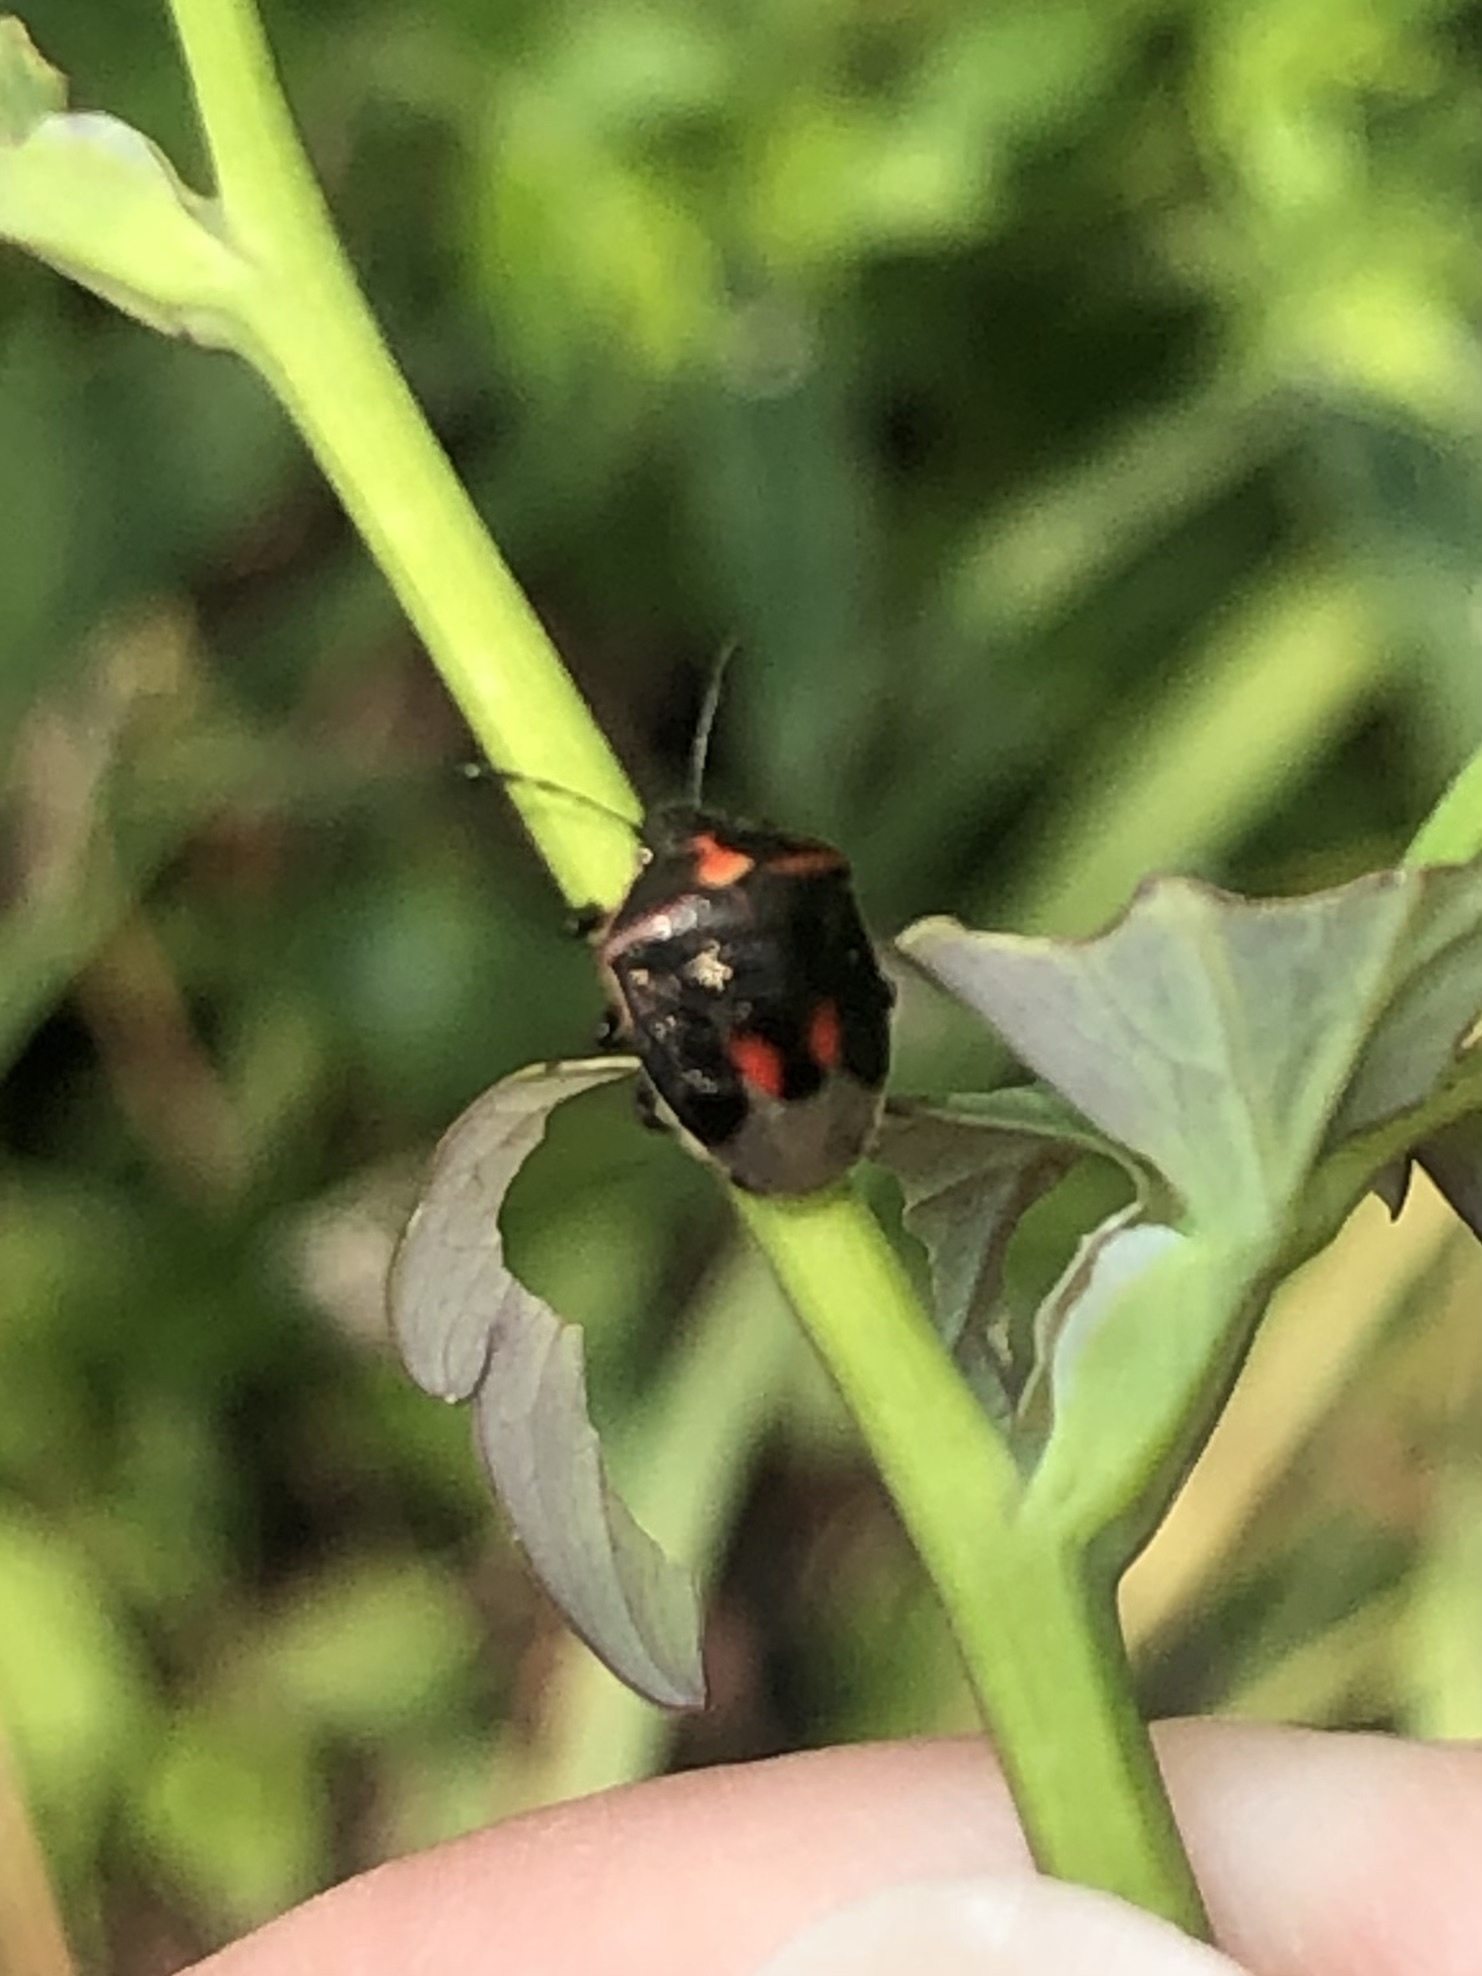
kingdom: Animalia
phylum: Arthropoda
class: Insecta
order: Hemiptera
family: Pentatomidae
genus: Cosmopepla
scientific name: Cosmopepla lintneriana
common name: Twice-stabbed stink bug
